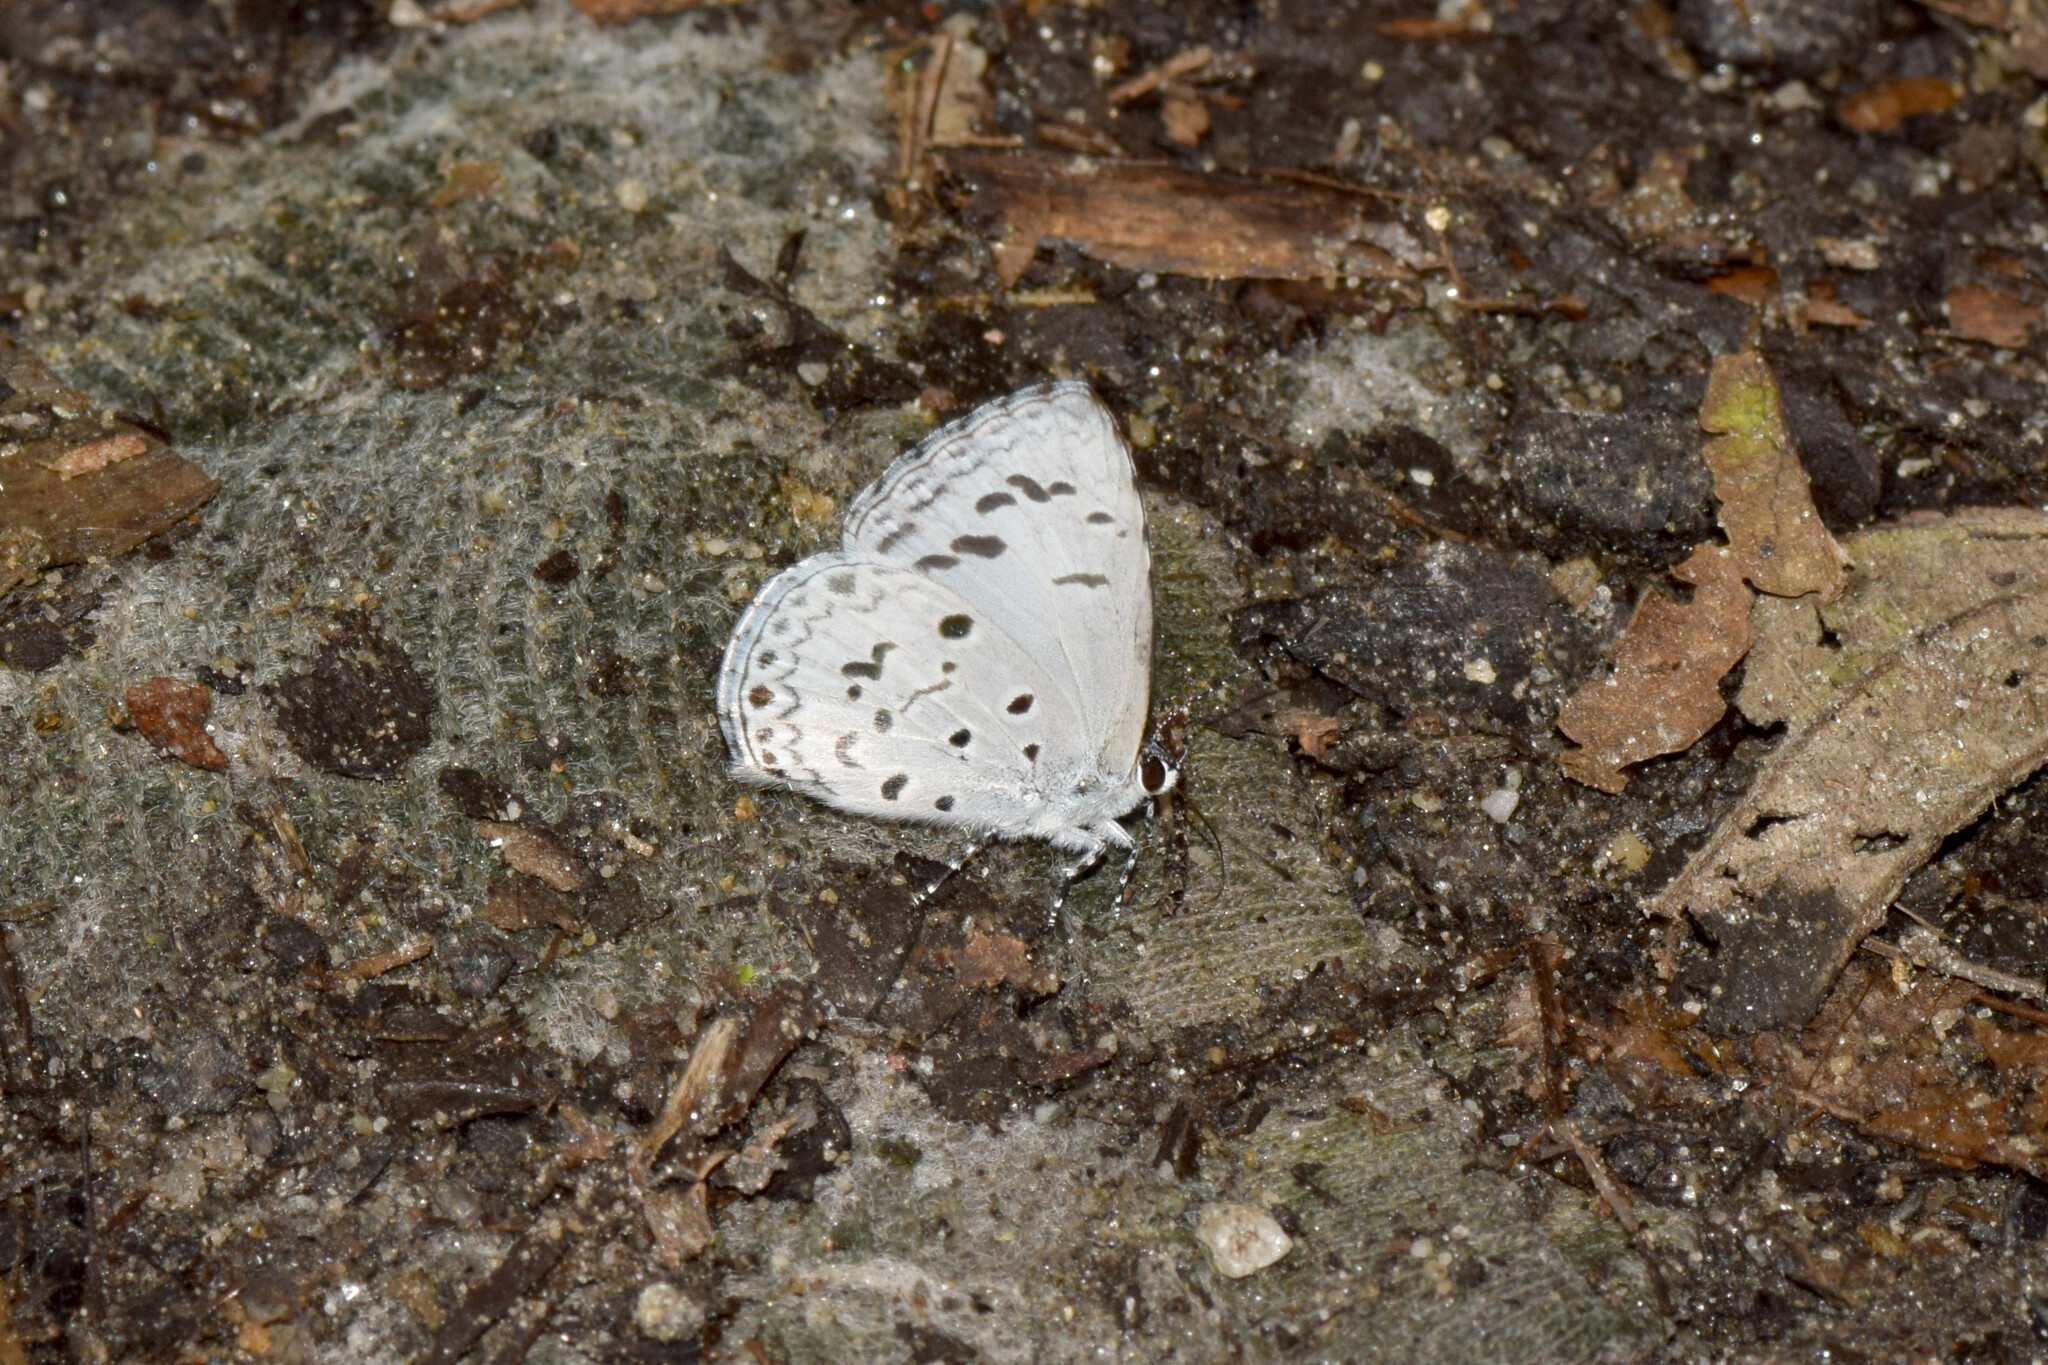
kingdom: Animalia
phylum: Arthropoda
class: Insecta
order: Lepidoptera
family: Lycaenidae
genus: Acytolepis
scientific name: Acytolepis puspa
